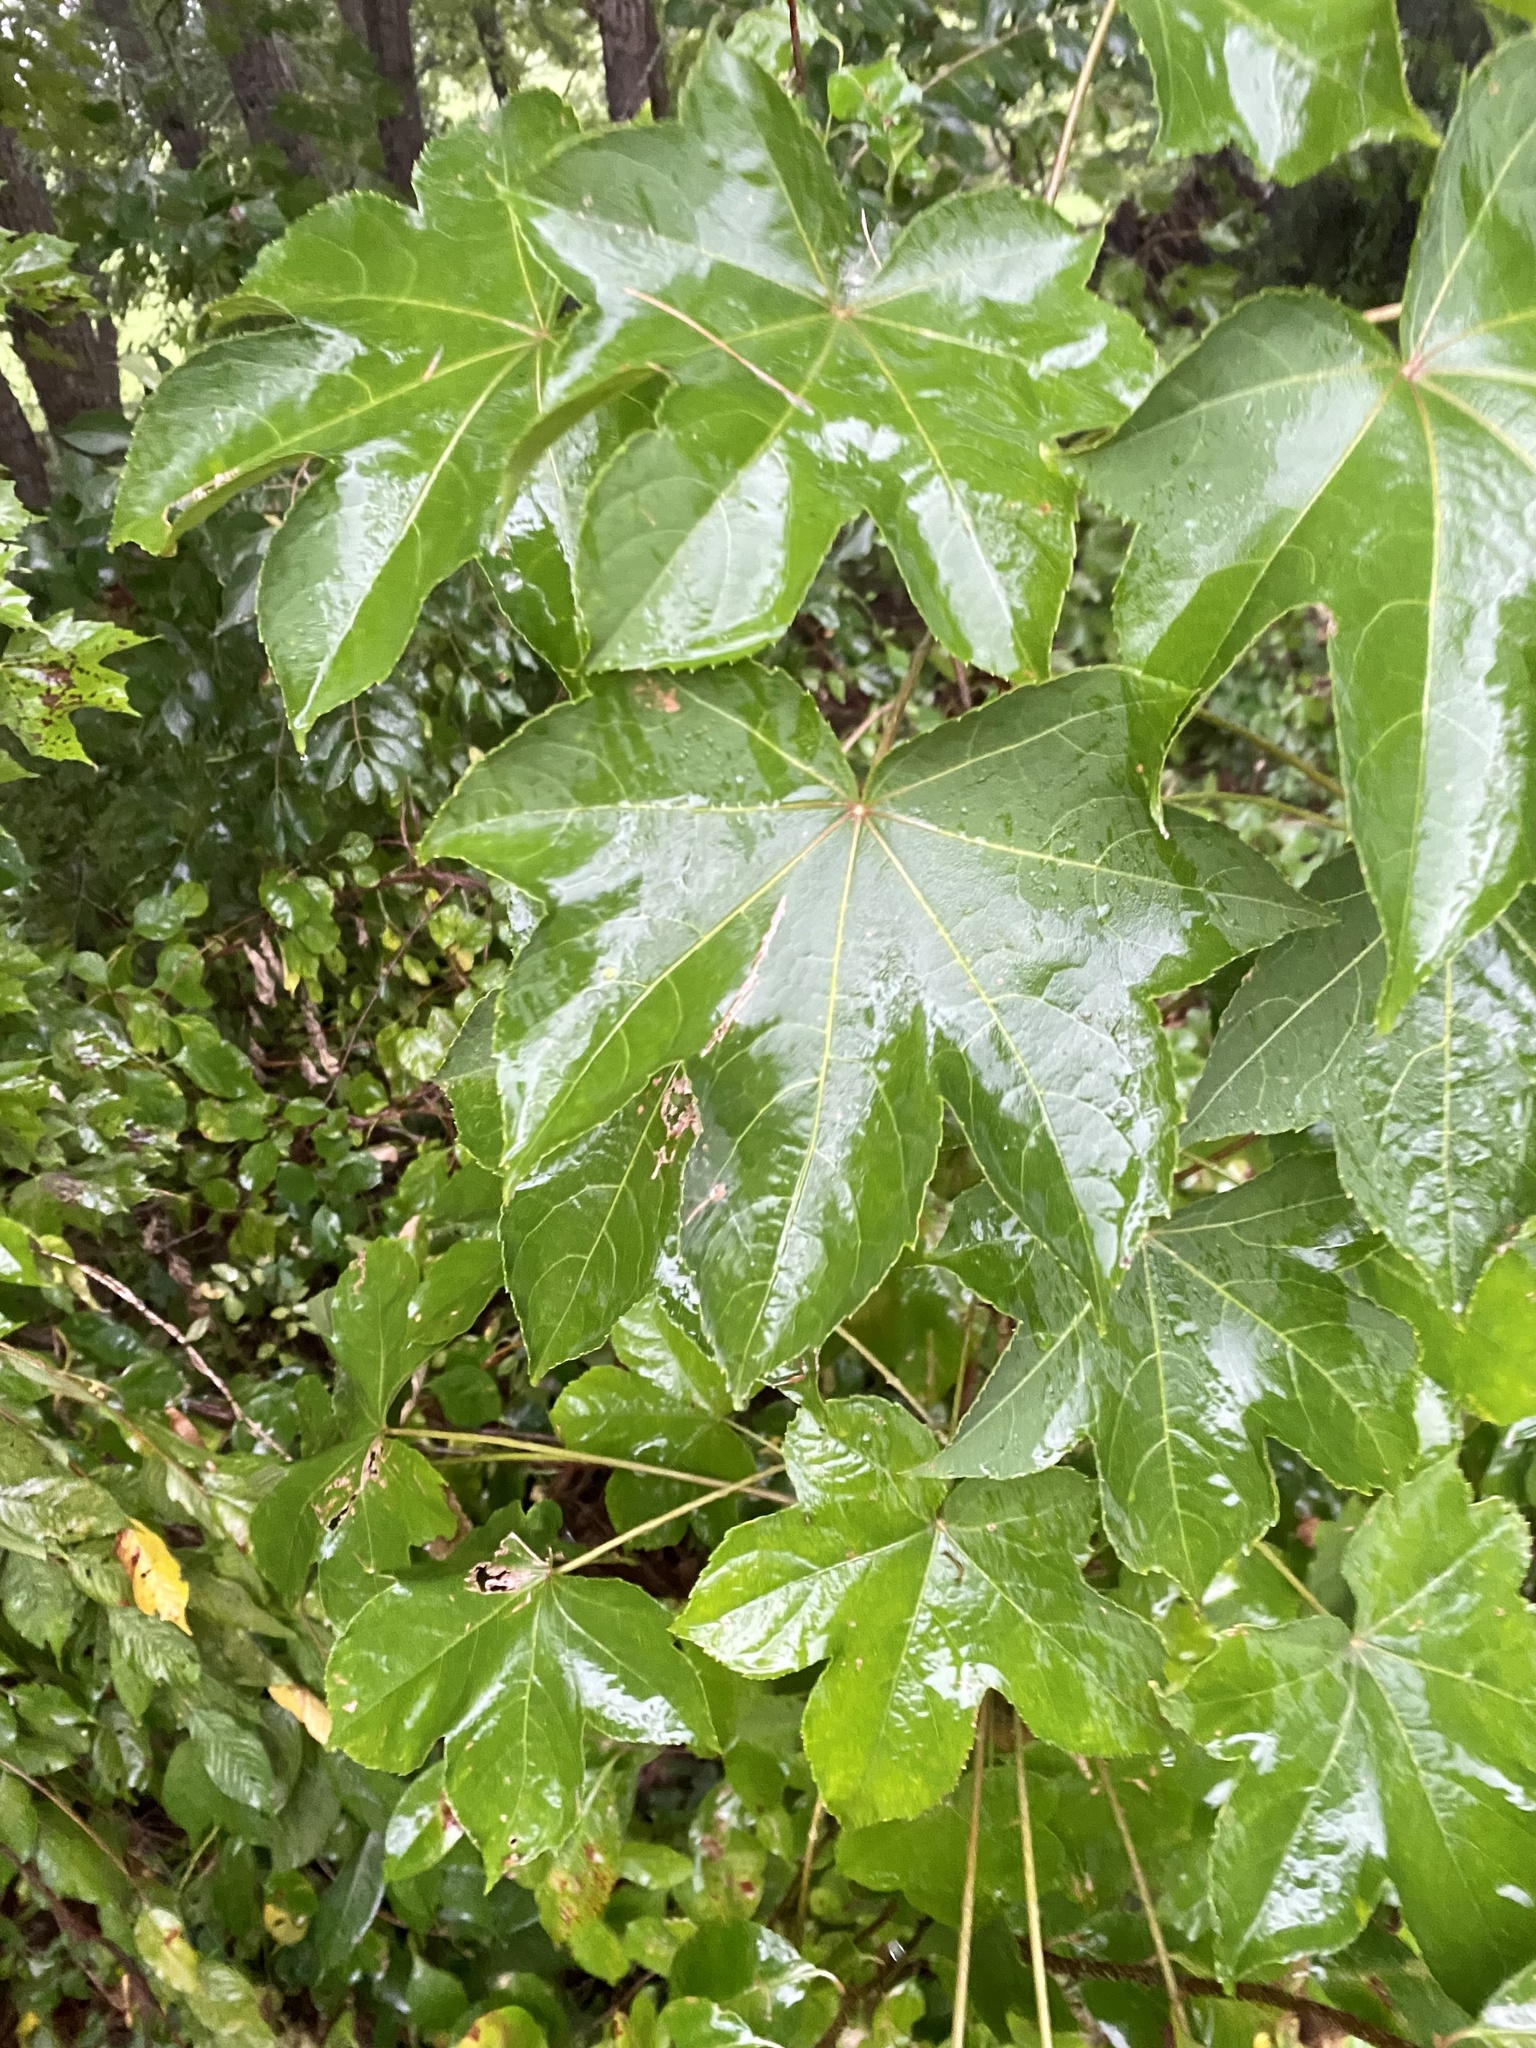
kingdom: Plantae
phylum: Tracheophyta
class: Magnoliopsida
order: Apiales
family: Araliaceae
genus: Kalopanax
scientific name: Kalopanax septemlobus
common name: Castor aralia
